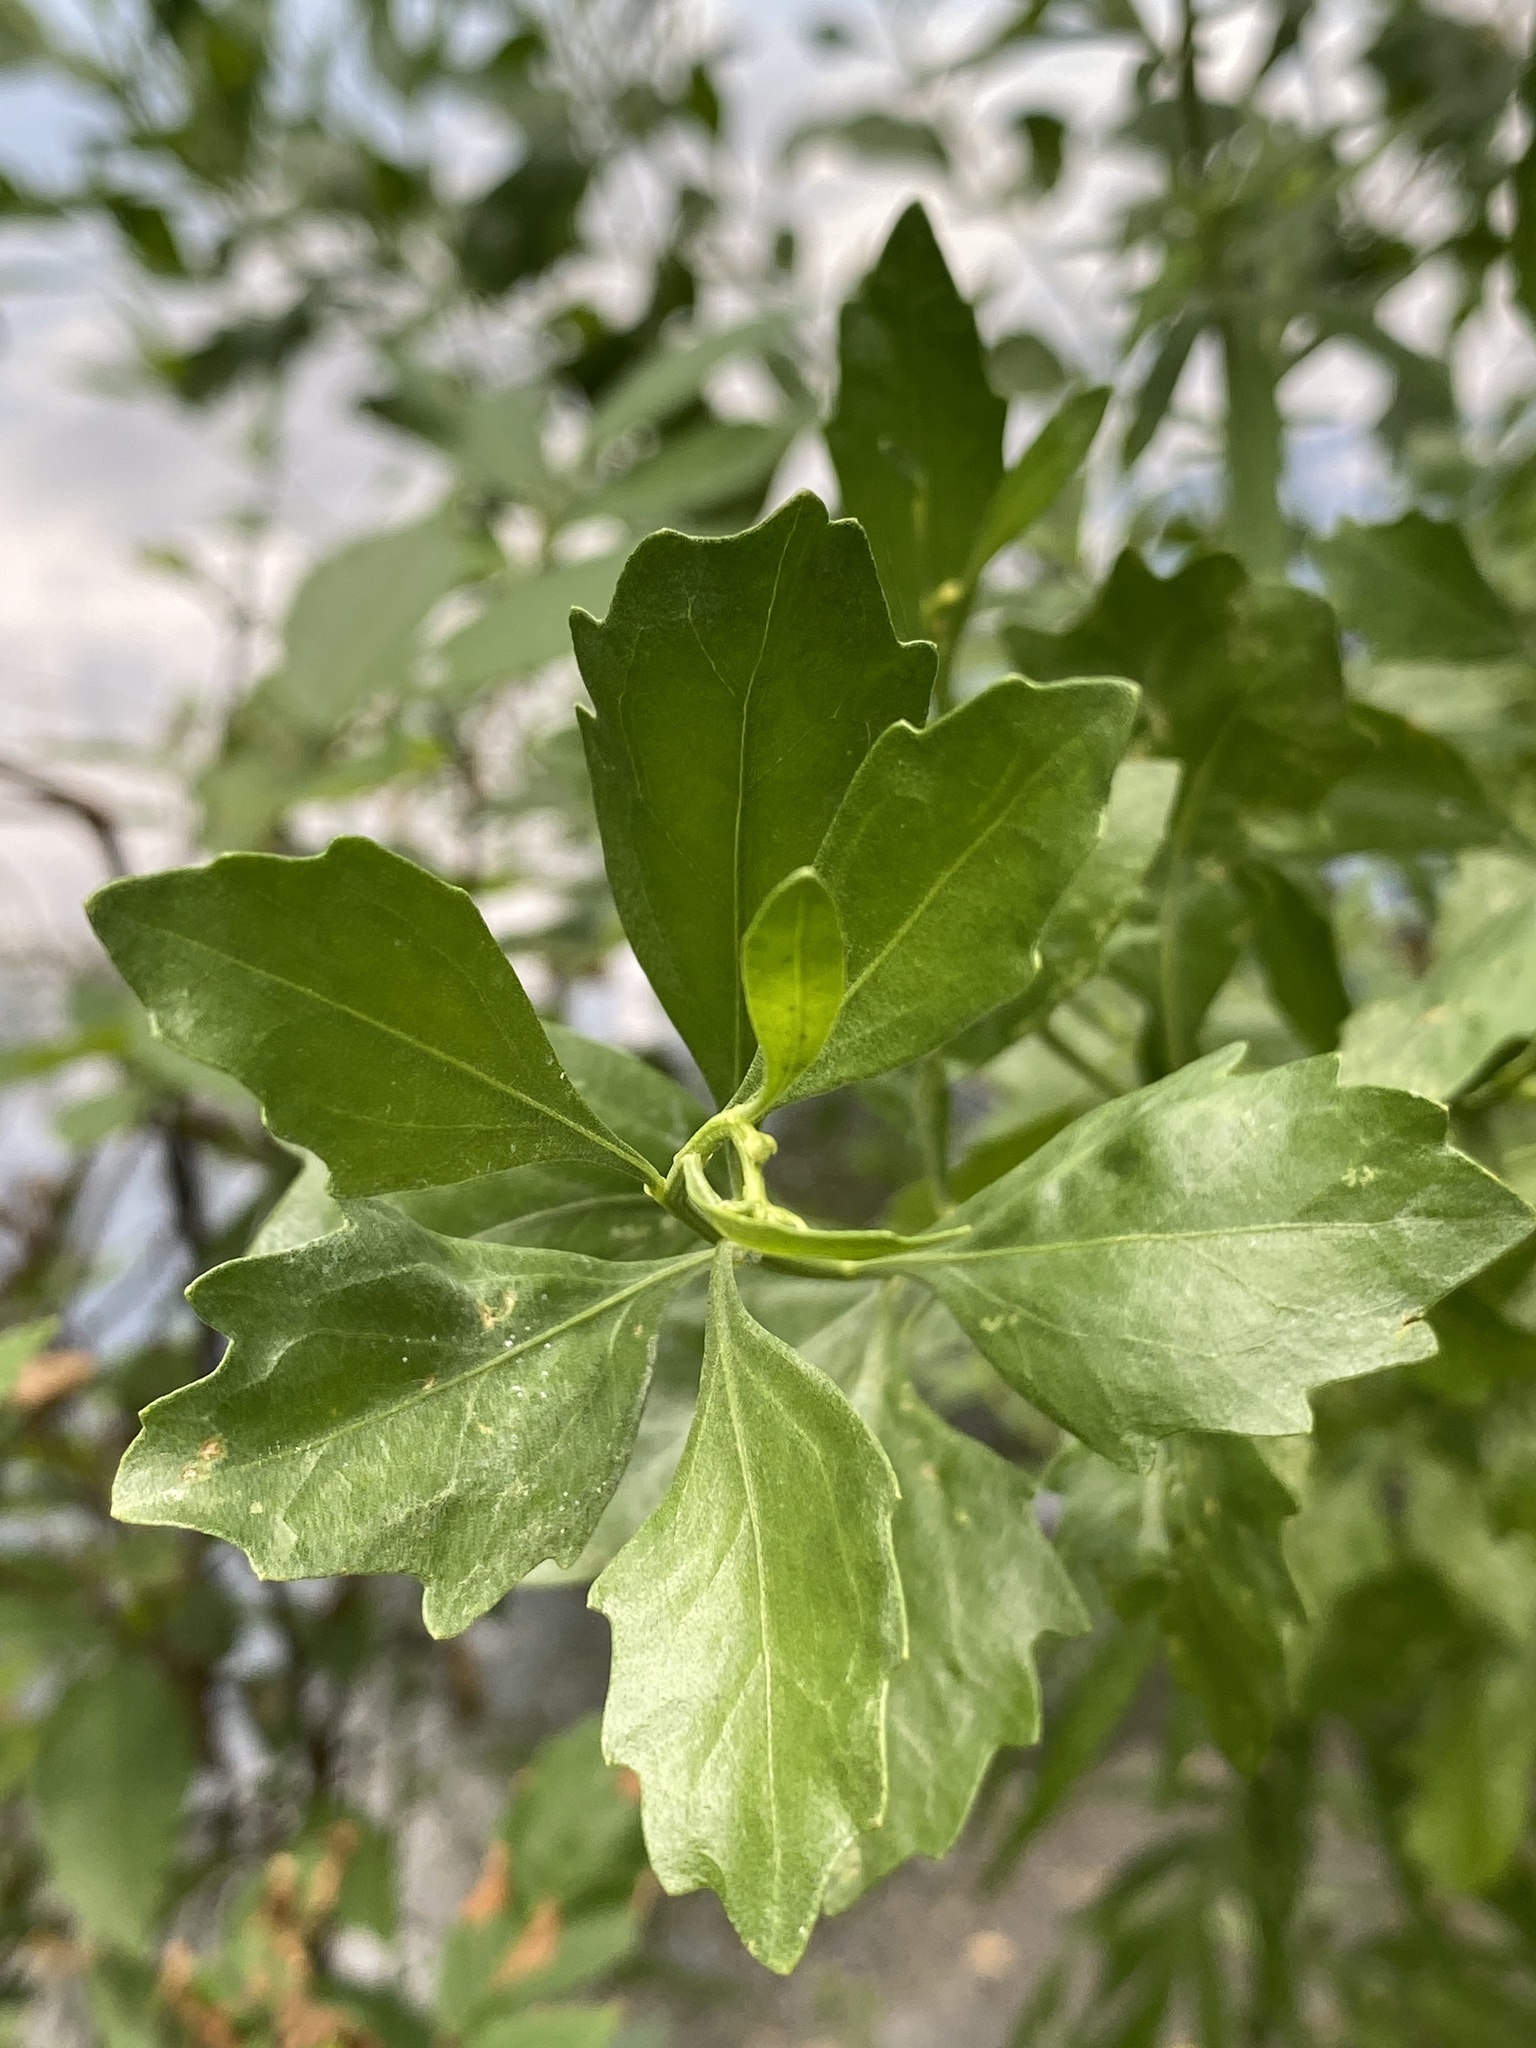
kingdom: Plantae
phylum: Tracheophyta
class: Magnoliopsida
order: Asterales
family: Asteraceae
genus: Baccharis
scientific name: Baccharis halimifolia
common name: Eastern baccharis
